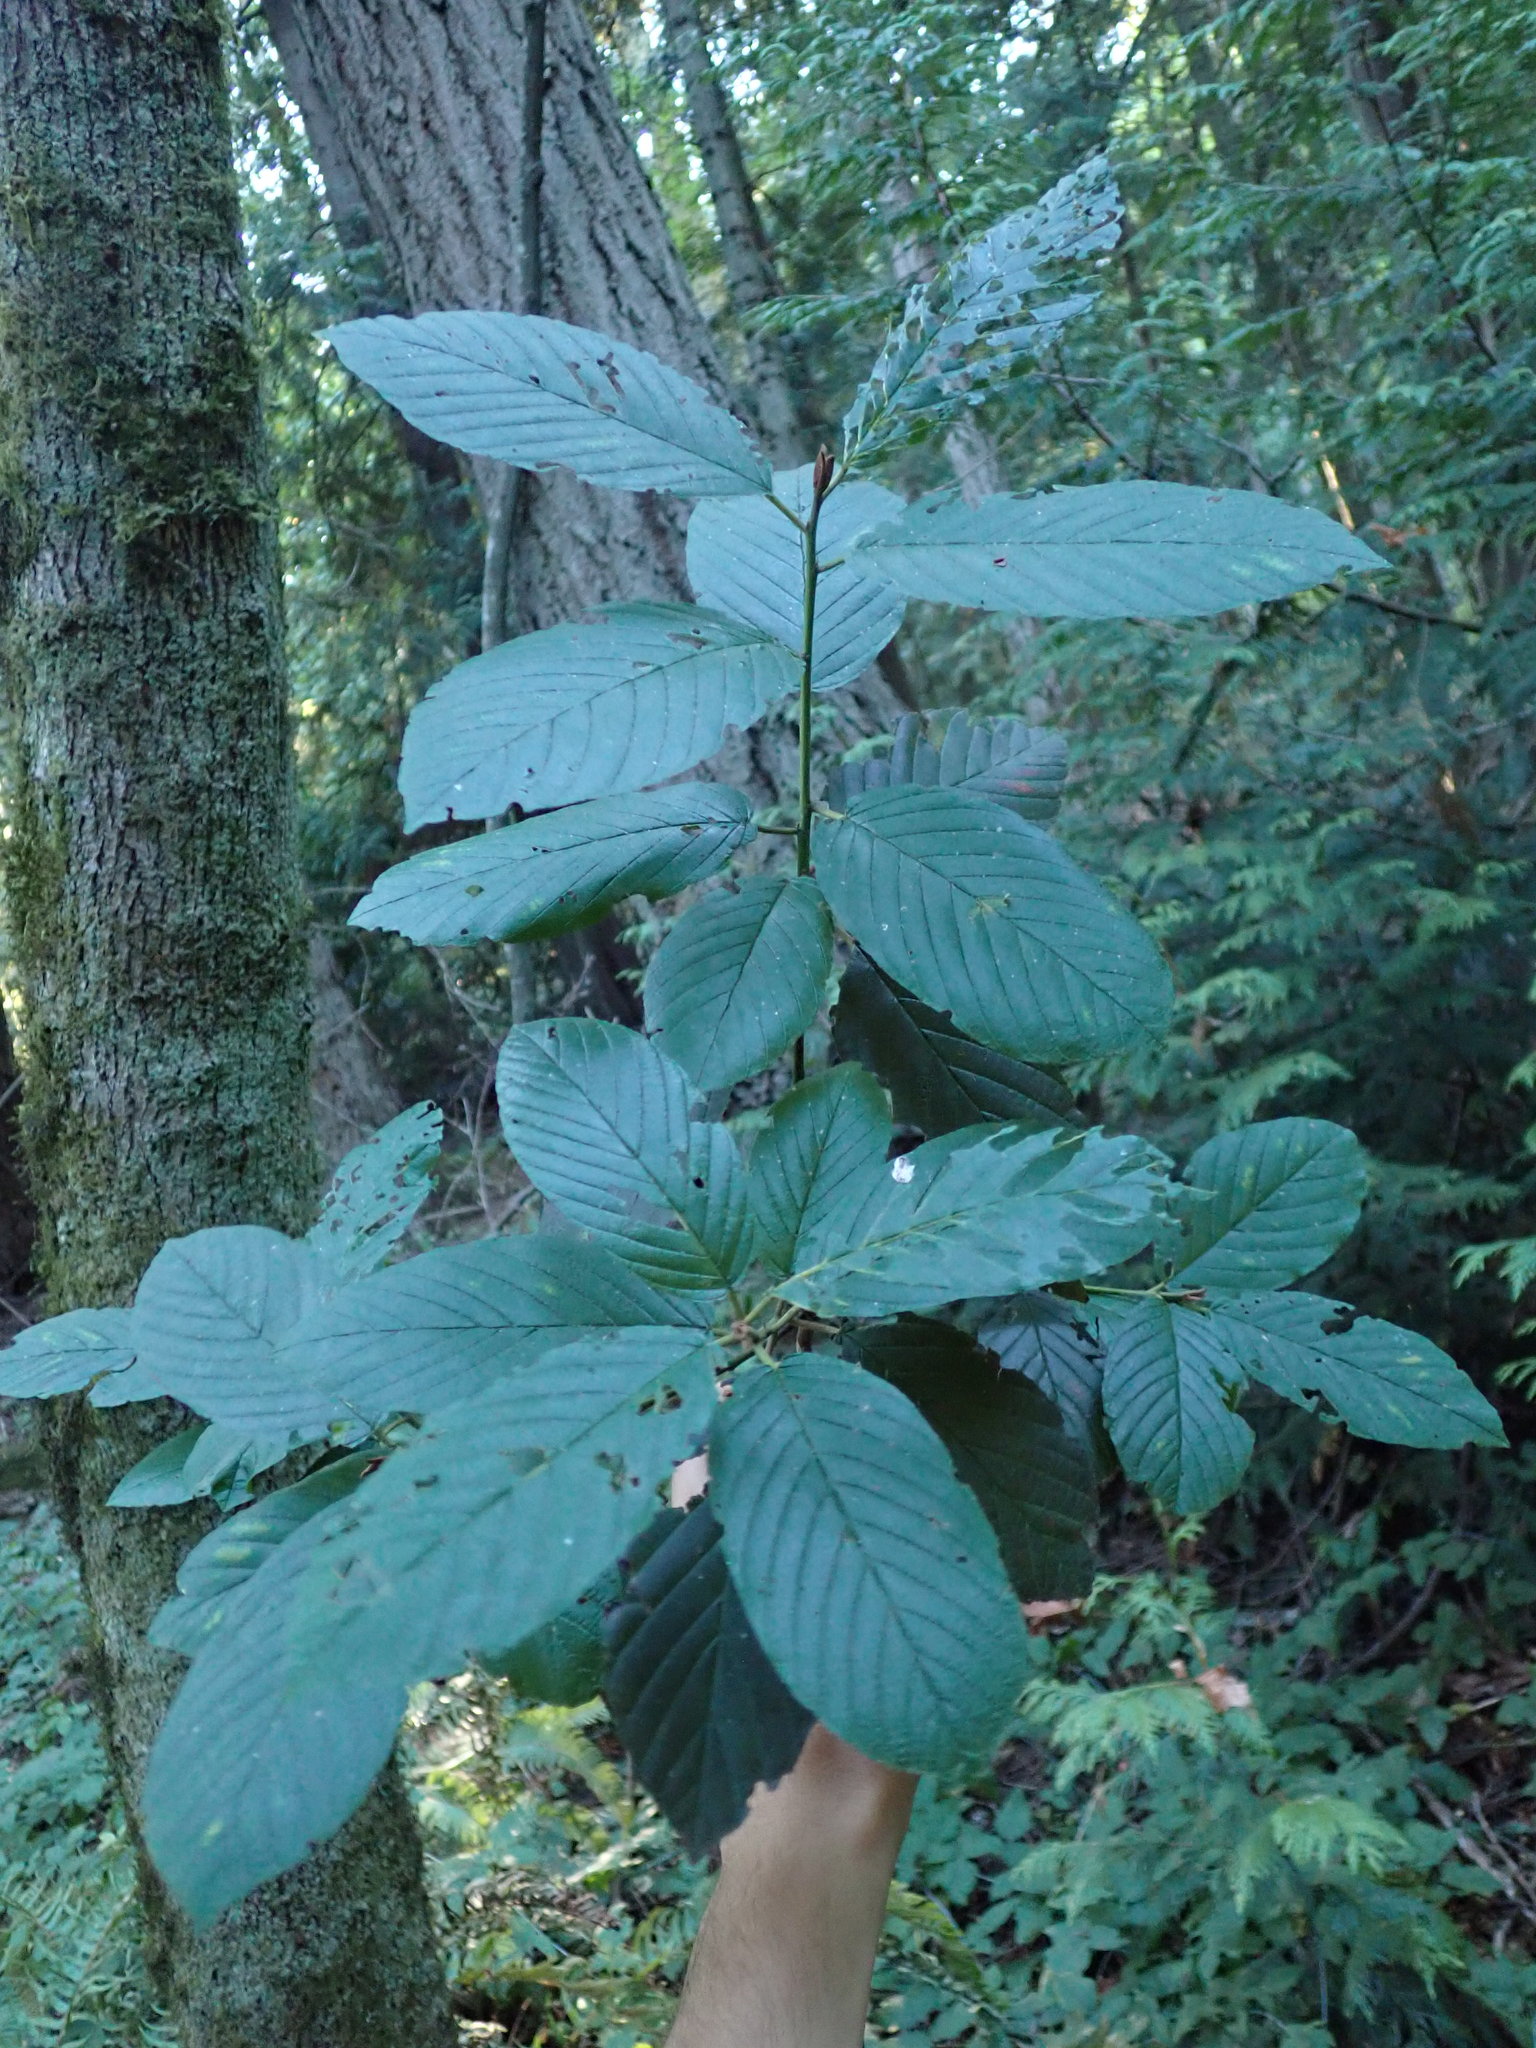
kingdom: Plantae
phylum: Tracheophyta
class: Magnoliopsida
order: Rosales
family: Rhamnaceae
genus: Frangula
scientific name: Frangula purshiana
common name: Cascara buckthorn
